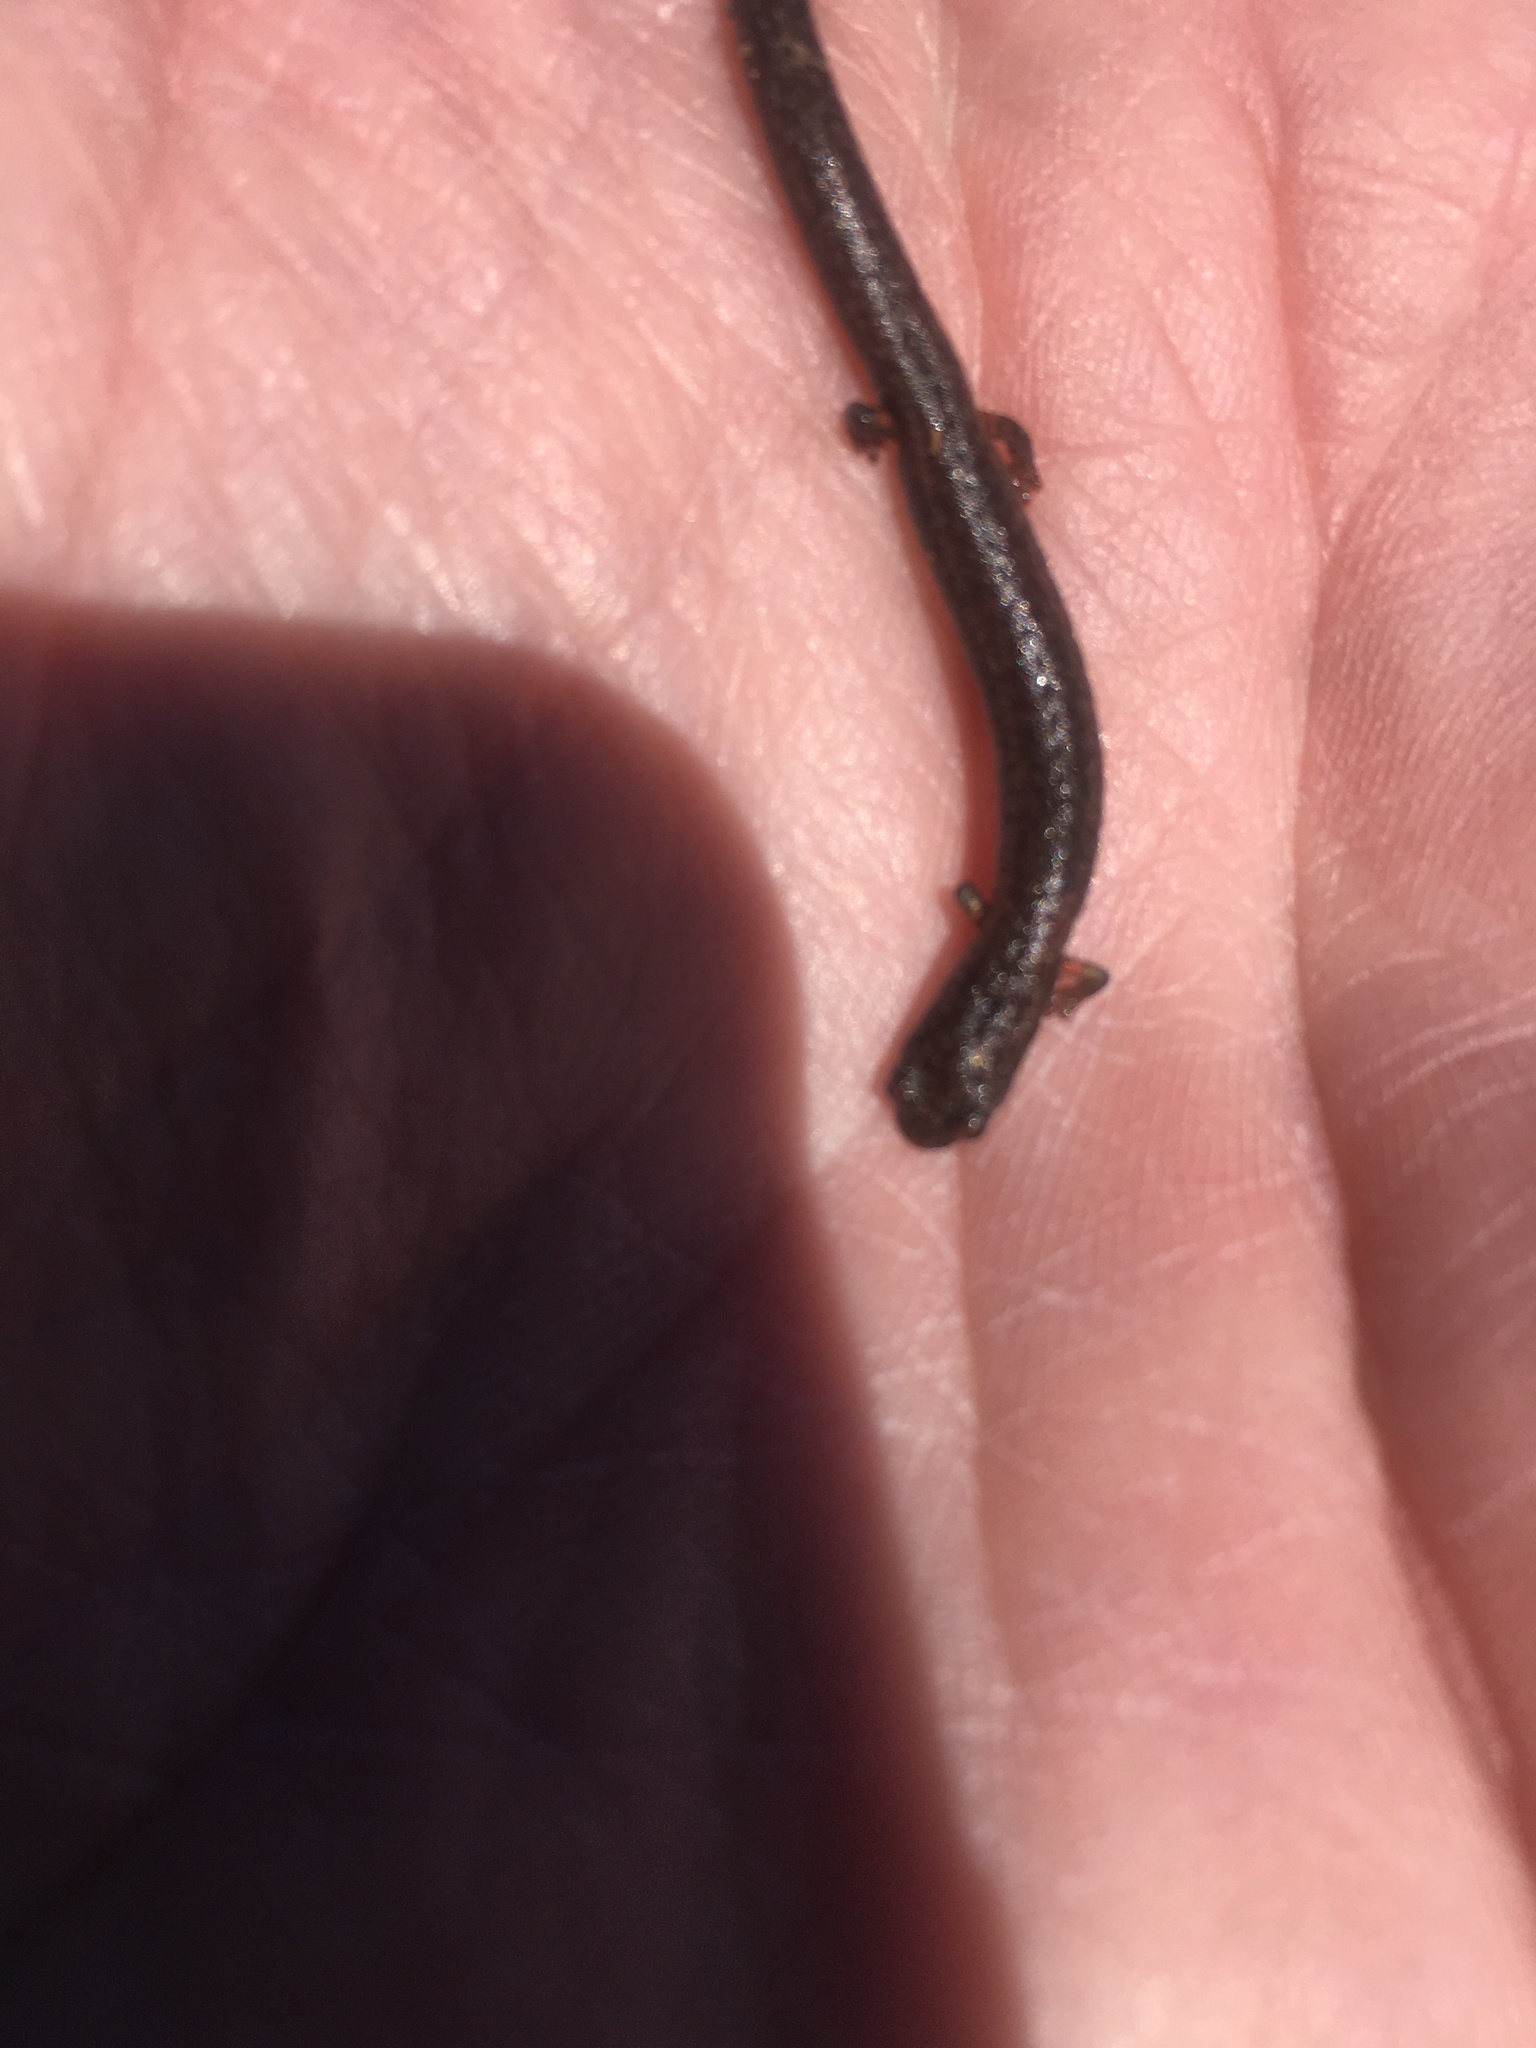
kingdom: Animalia
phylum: Chordata
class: Amphibia
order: Caudata
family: Plethodontidae
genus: Batrachoseps
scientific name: Batrachoseps major
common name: Garden slender salamander
